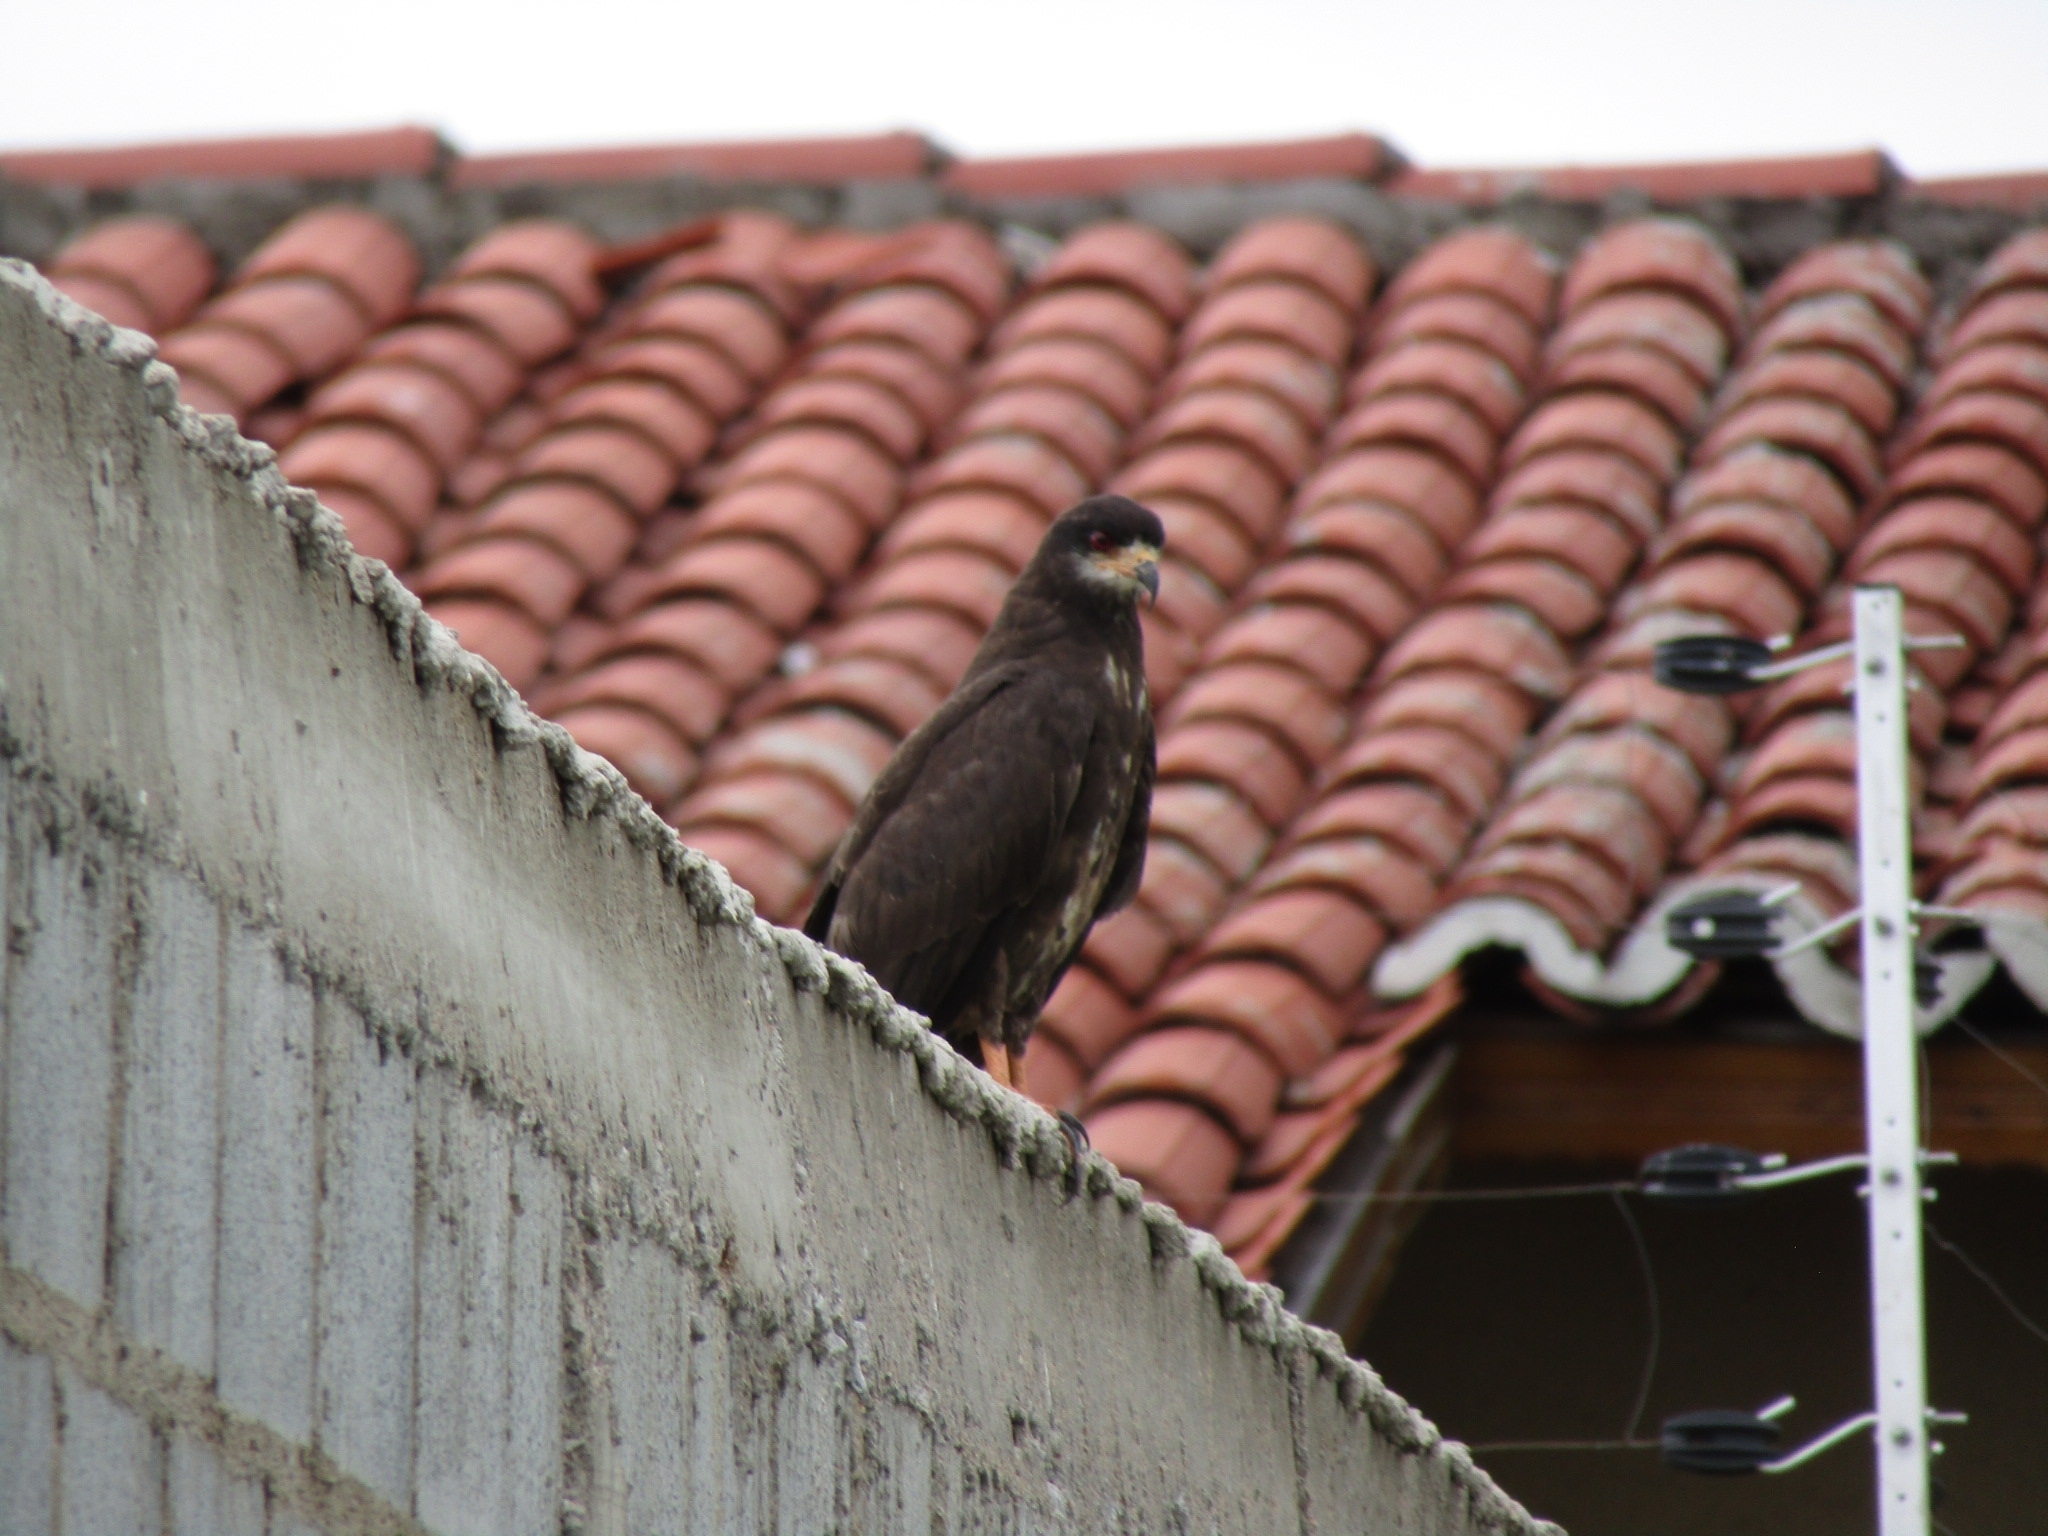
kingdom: Animalia
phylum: Chordata
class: Aves
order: Accipitriformes
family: Accipitridae
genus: Rostrhamus
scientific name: Rostrhamus sociabilis
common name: Snail kite
